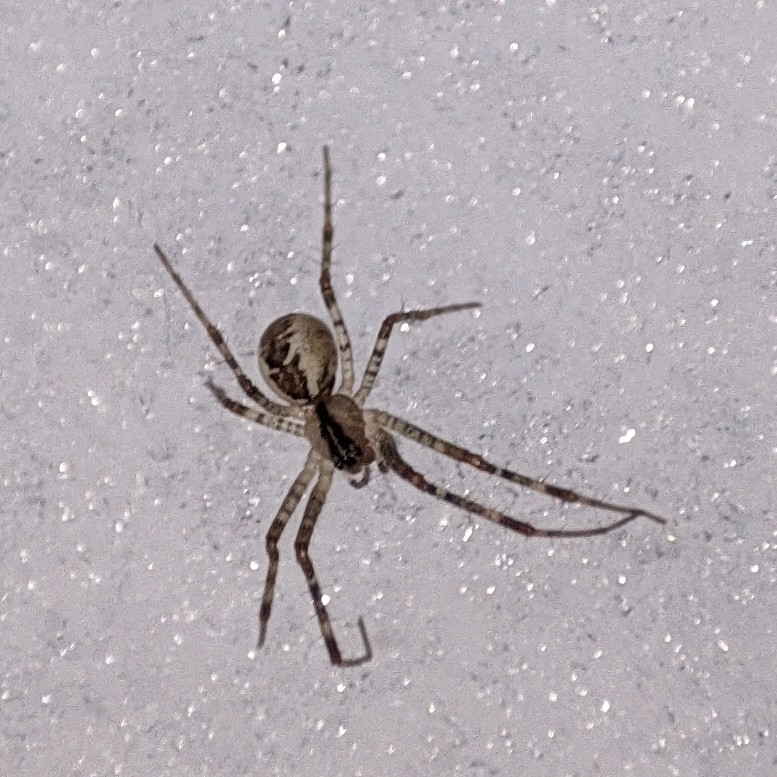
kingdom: Animalia
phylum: Arthropoda
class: Arachnida
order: Araneae
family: Linyphiidae
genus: Pityohyphantes
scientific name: Pityohyphantes phrygianus
